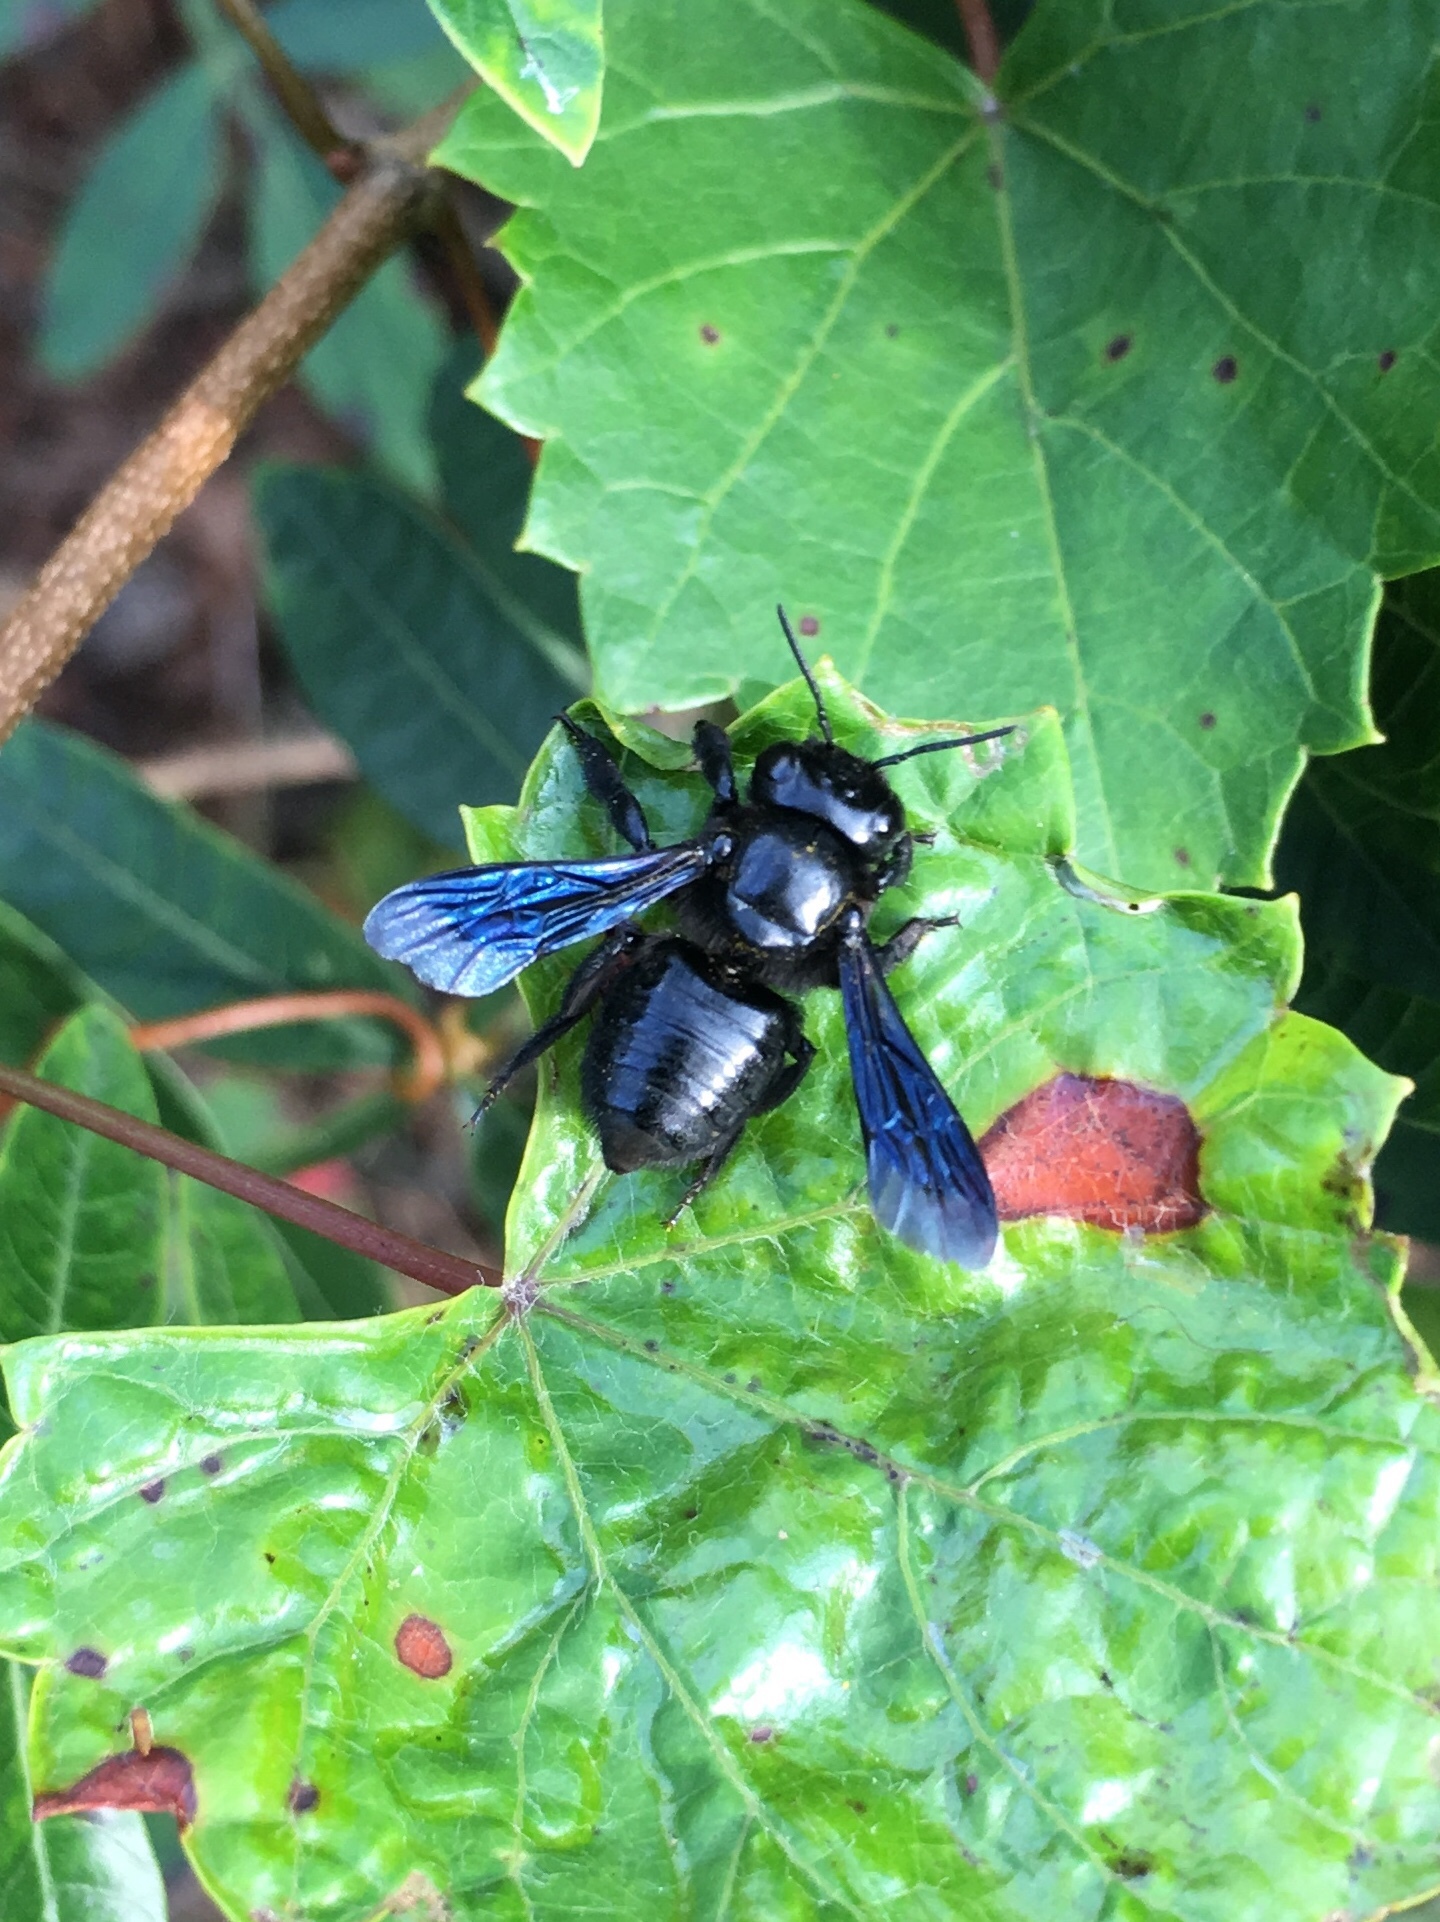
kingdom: Animalia
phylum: Arthropoda
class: Insecta
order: Hymenoptera
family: Megachilidae
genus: Megachile
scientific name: Megachile xylocopoides
